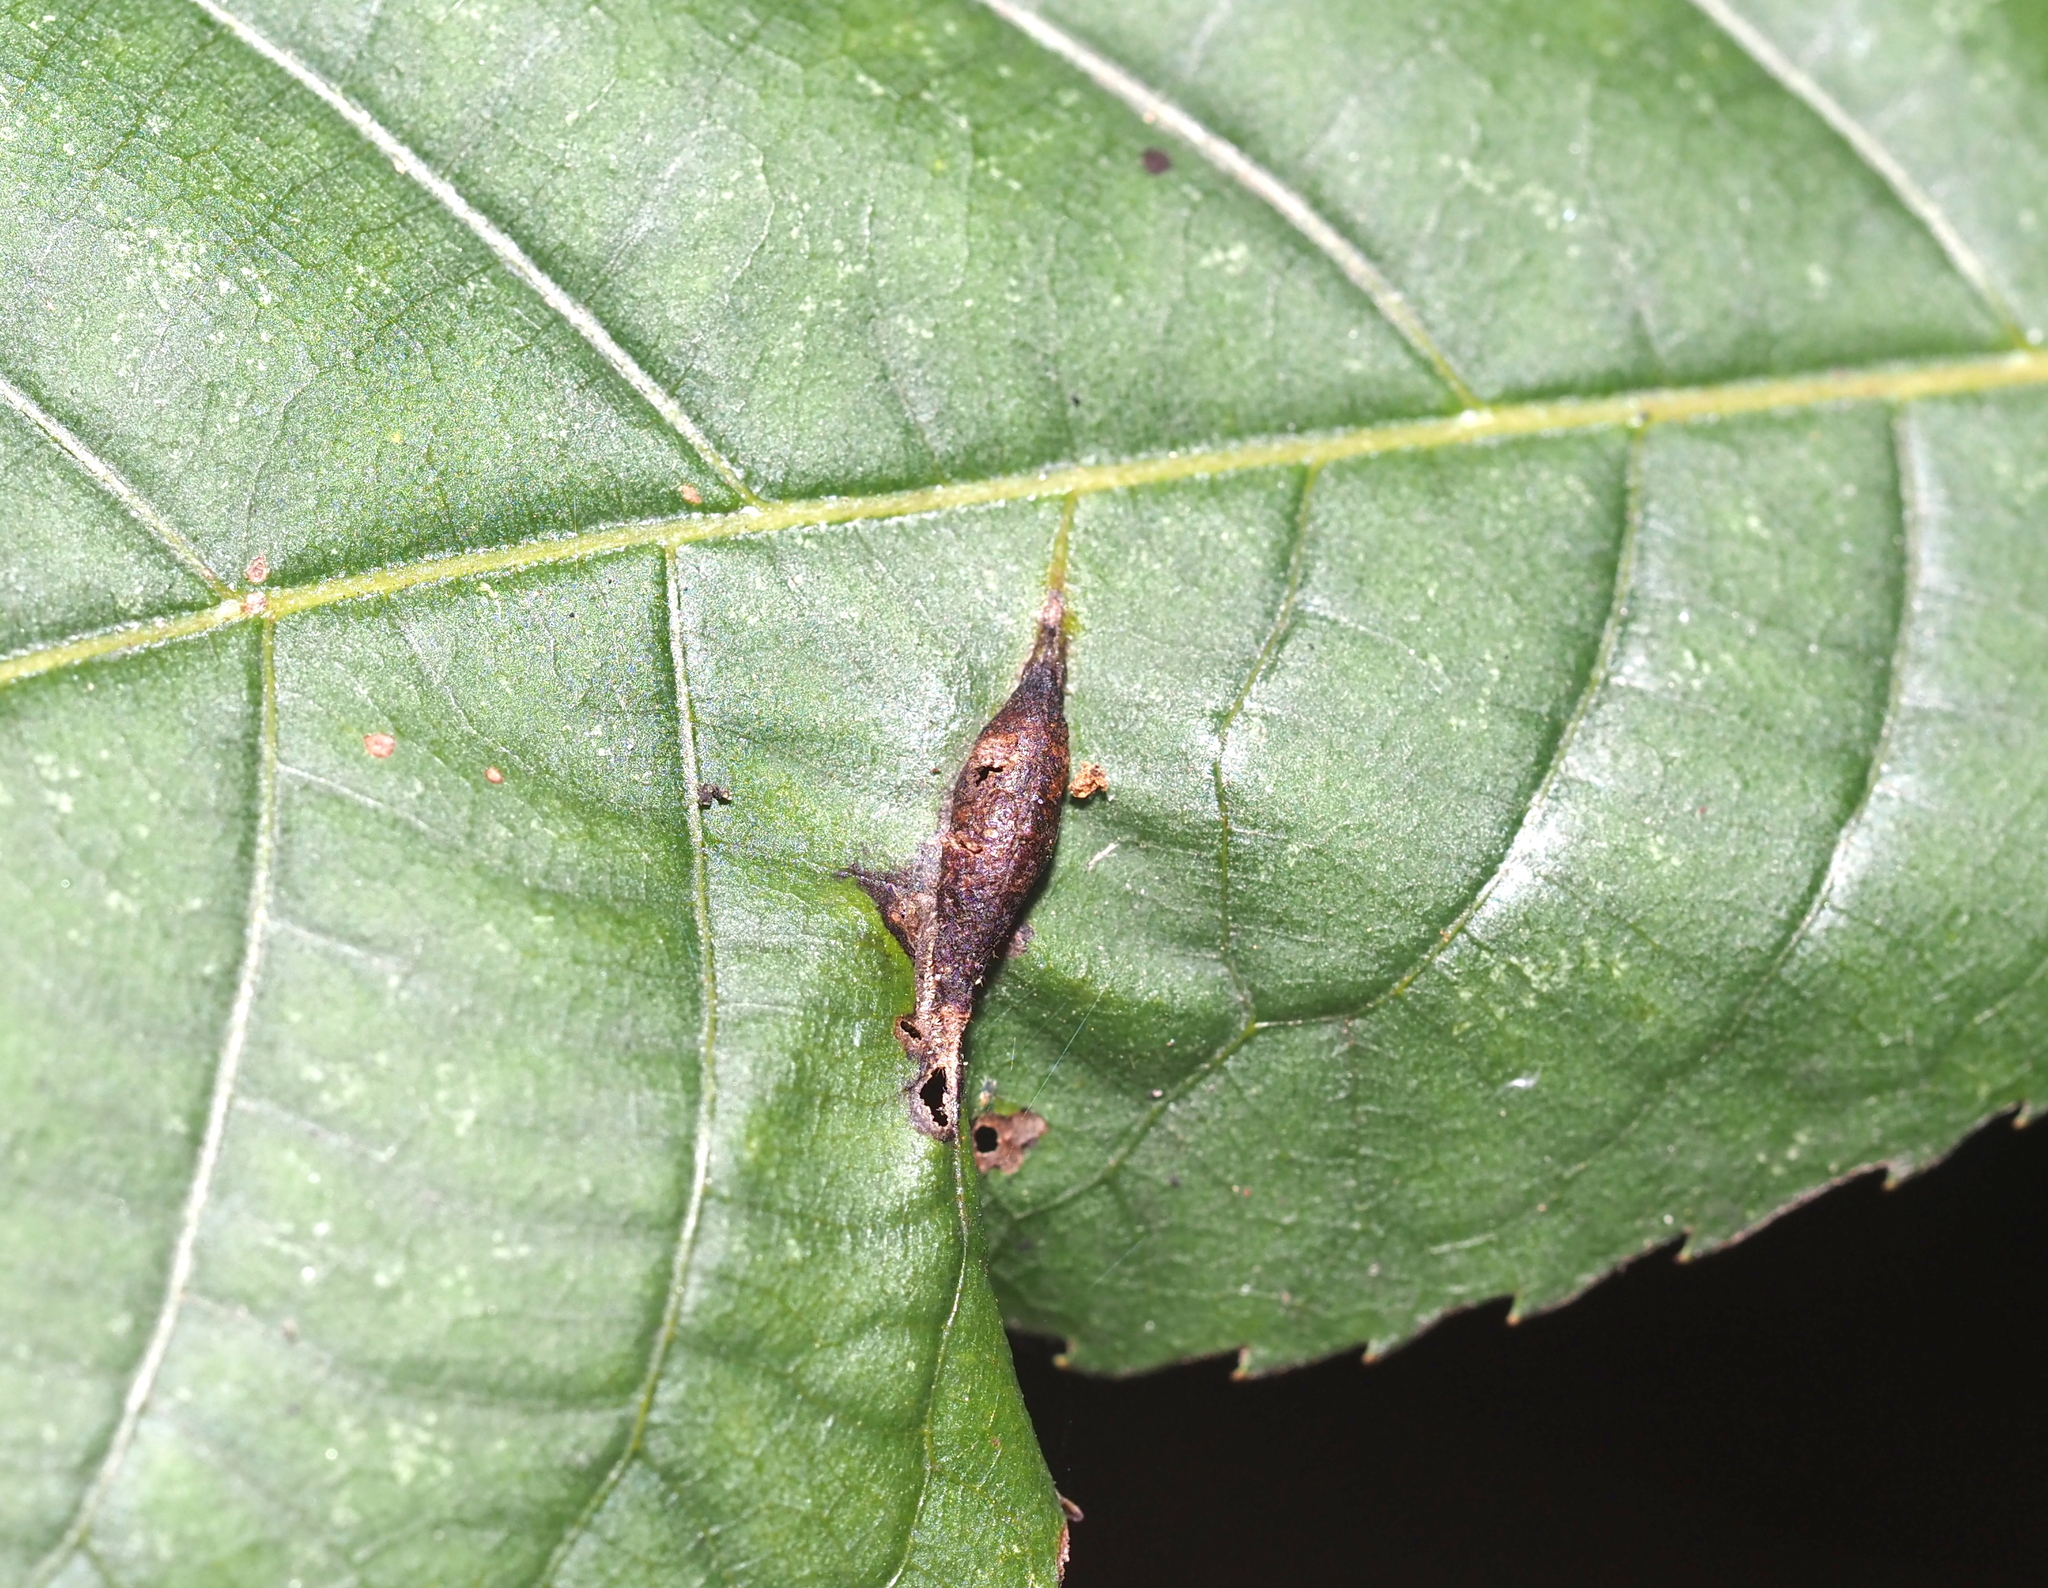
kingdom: Animalia
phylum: Arthropoda
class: Insecta
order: Hemiptera
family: Phylloxeridae
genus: Phylloxera
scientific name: Phylloxera caryaevenae
